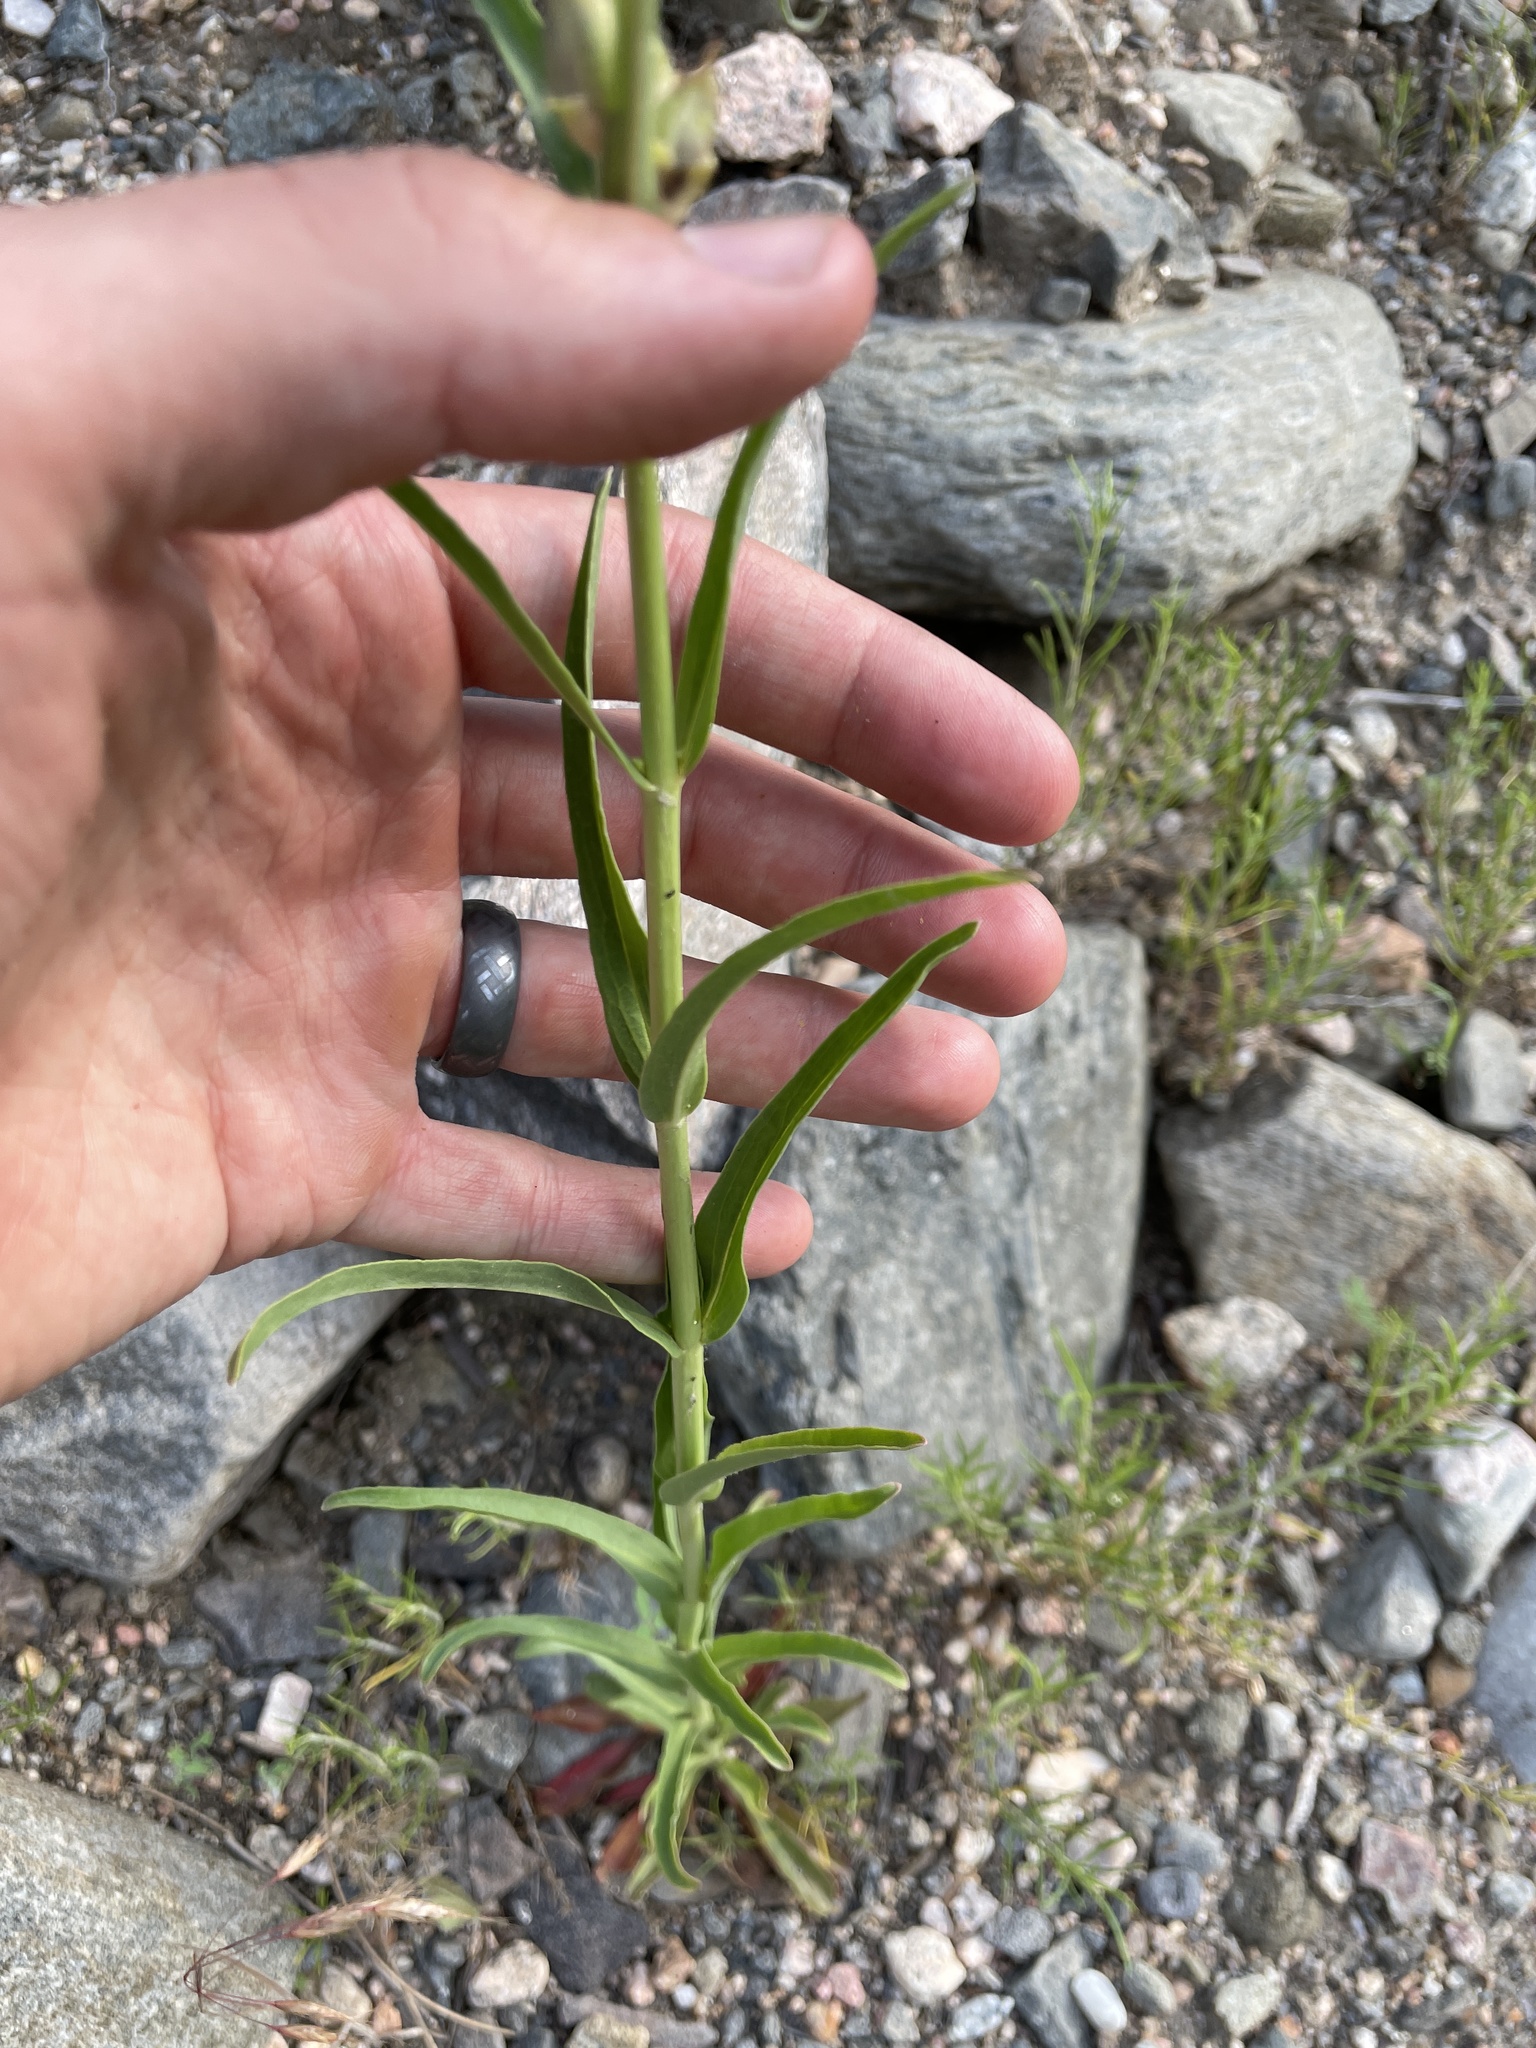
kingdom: Plantae
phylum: Tracheophyta
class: Magnoliopsida
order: Lamiales
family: Plantaginaceae
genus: Penstemon
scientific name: Penstemon virgatus
